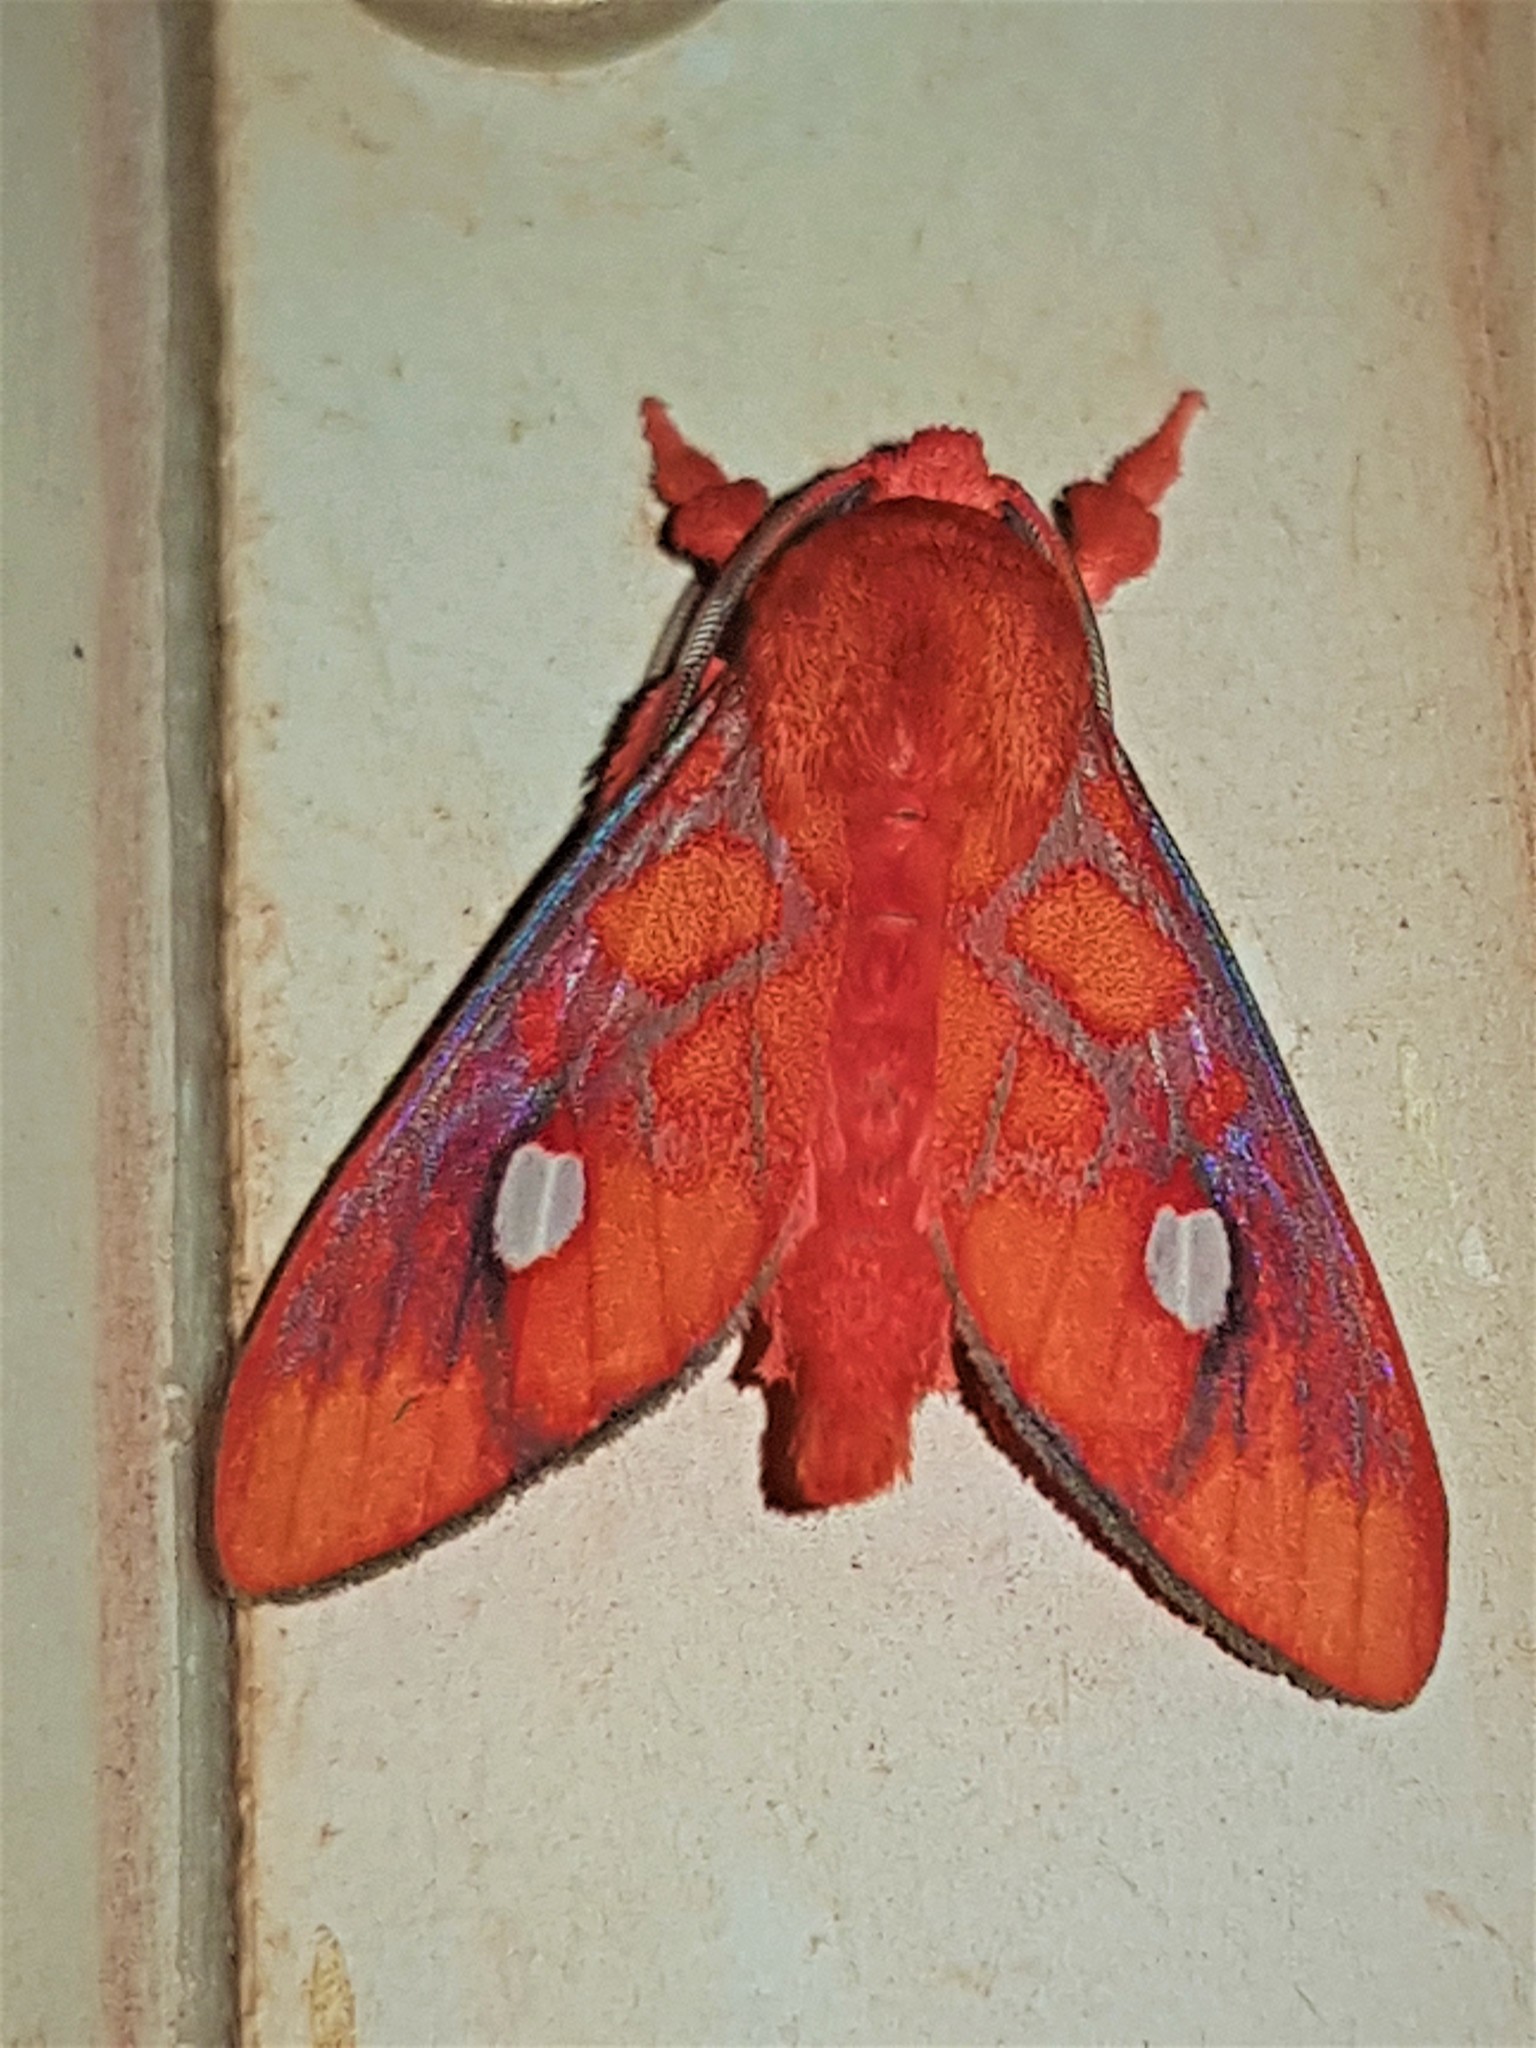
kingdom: Animalia
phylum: Arthropoda
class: Insecta
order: Lepidoptera
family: Erebidae
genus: Ernassa
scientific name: Ernassa cruenta
